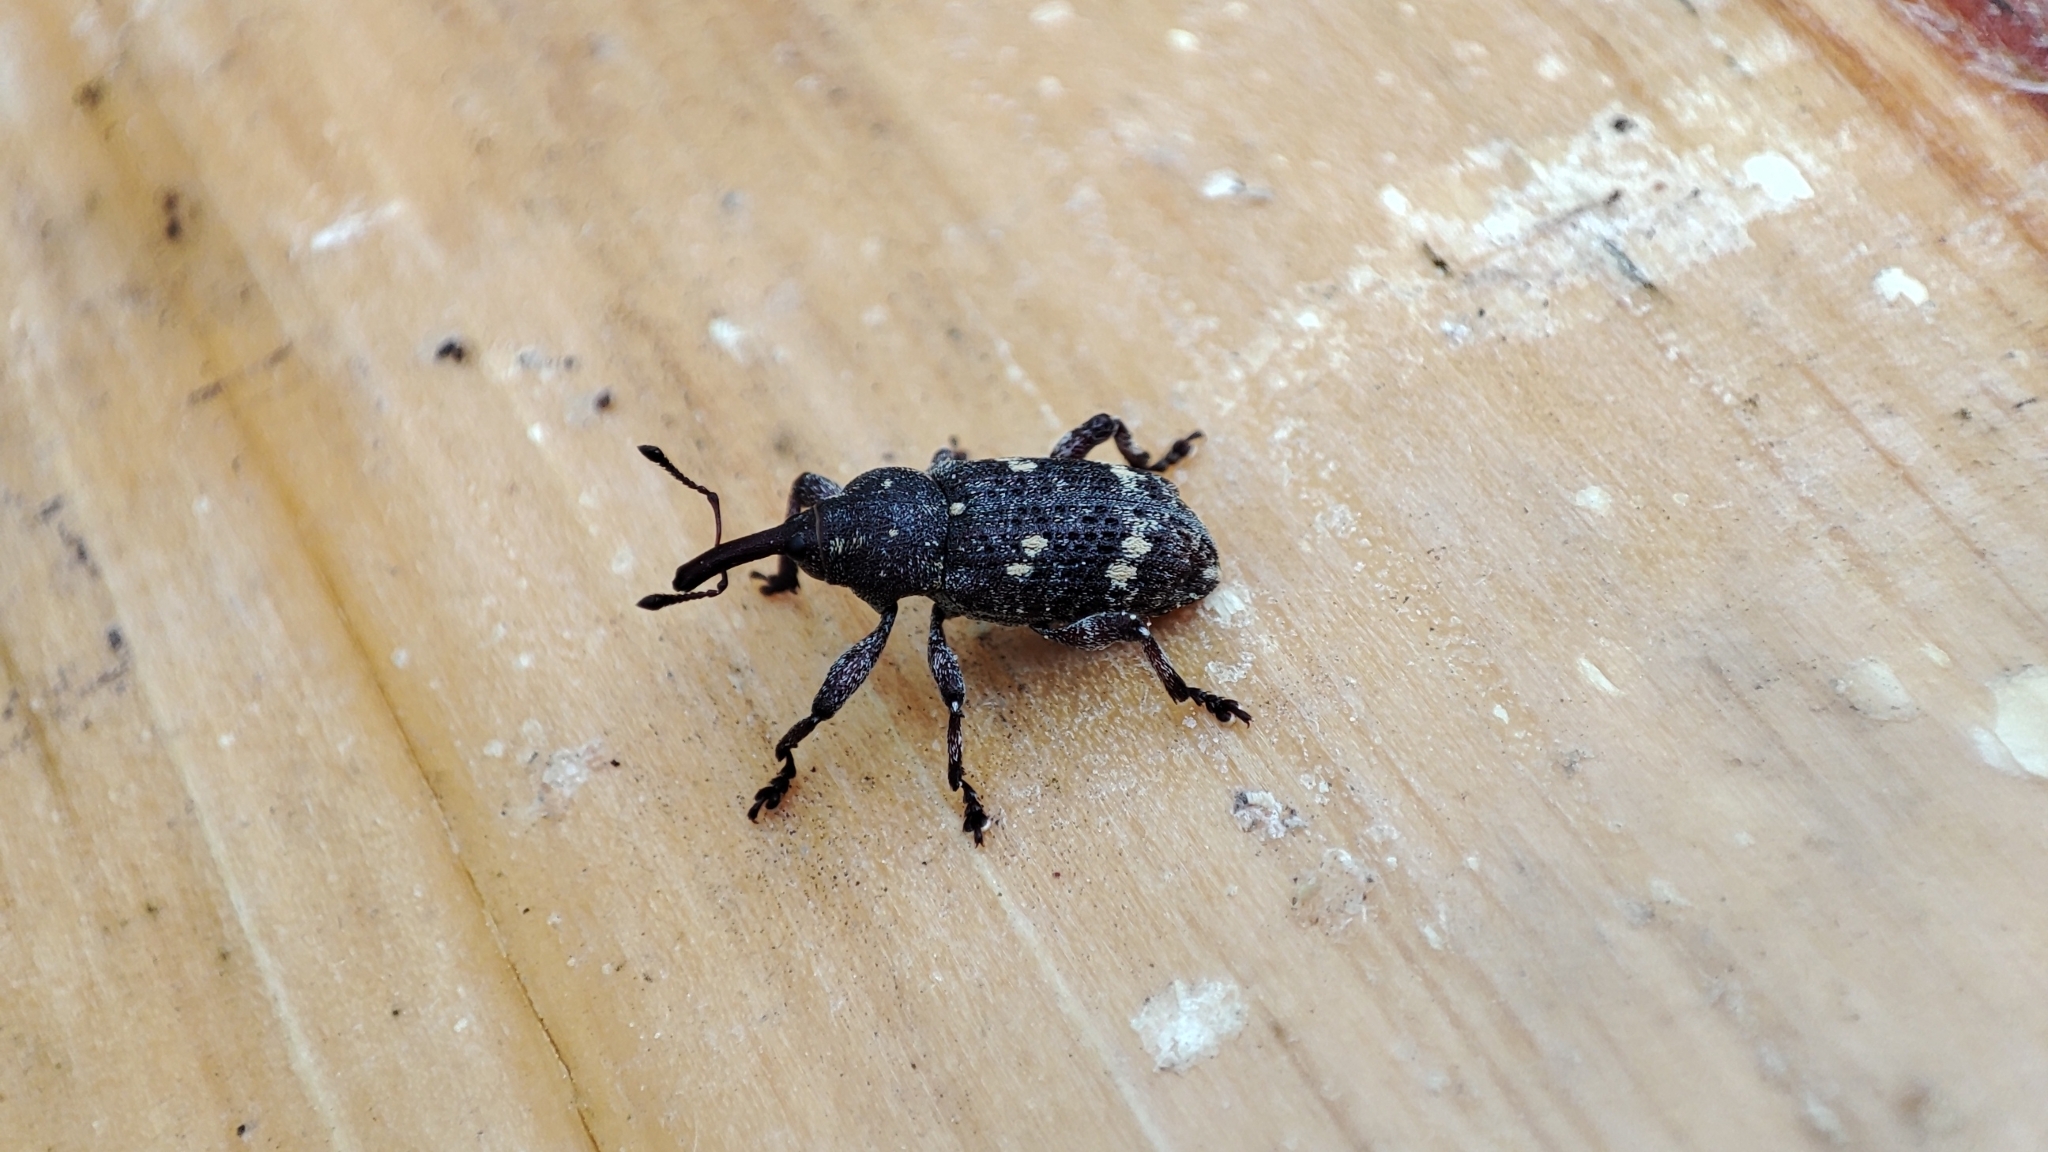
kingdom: Animalia
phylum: Arthropoda
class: Insecta
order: Coleoptera
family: Curculionidae
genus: Hylobius
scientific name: Hylobius abietis
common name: Large pine weevil
